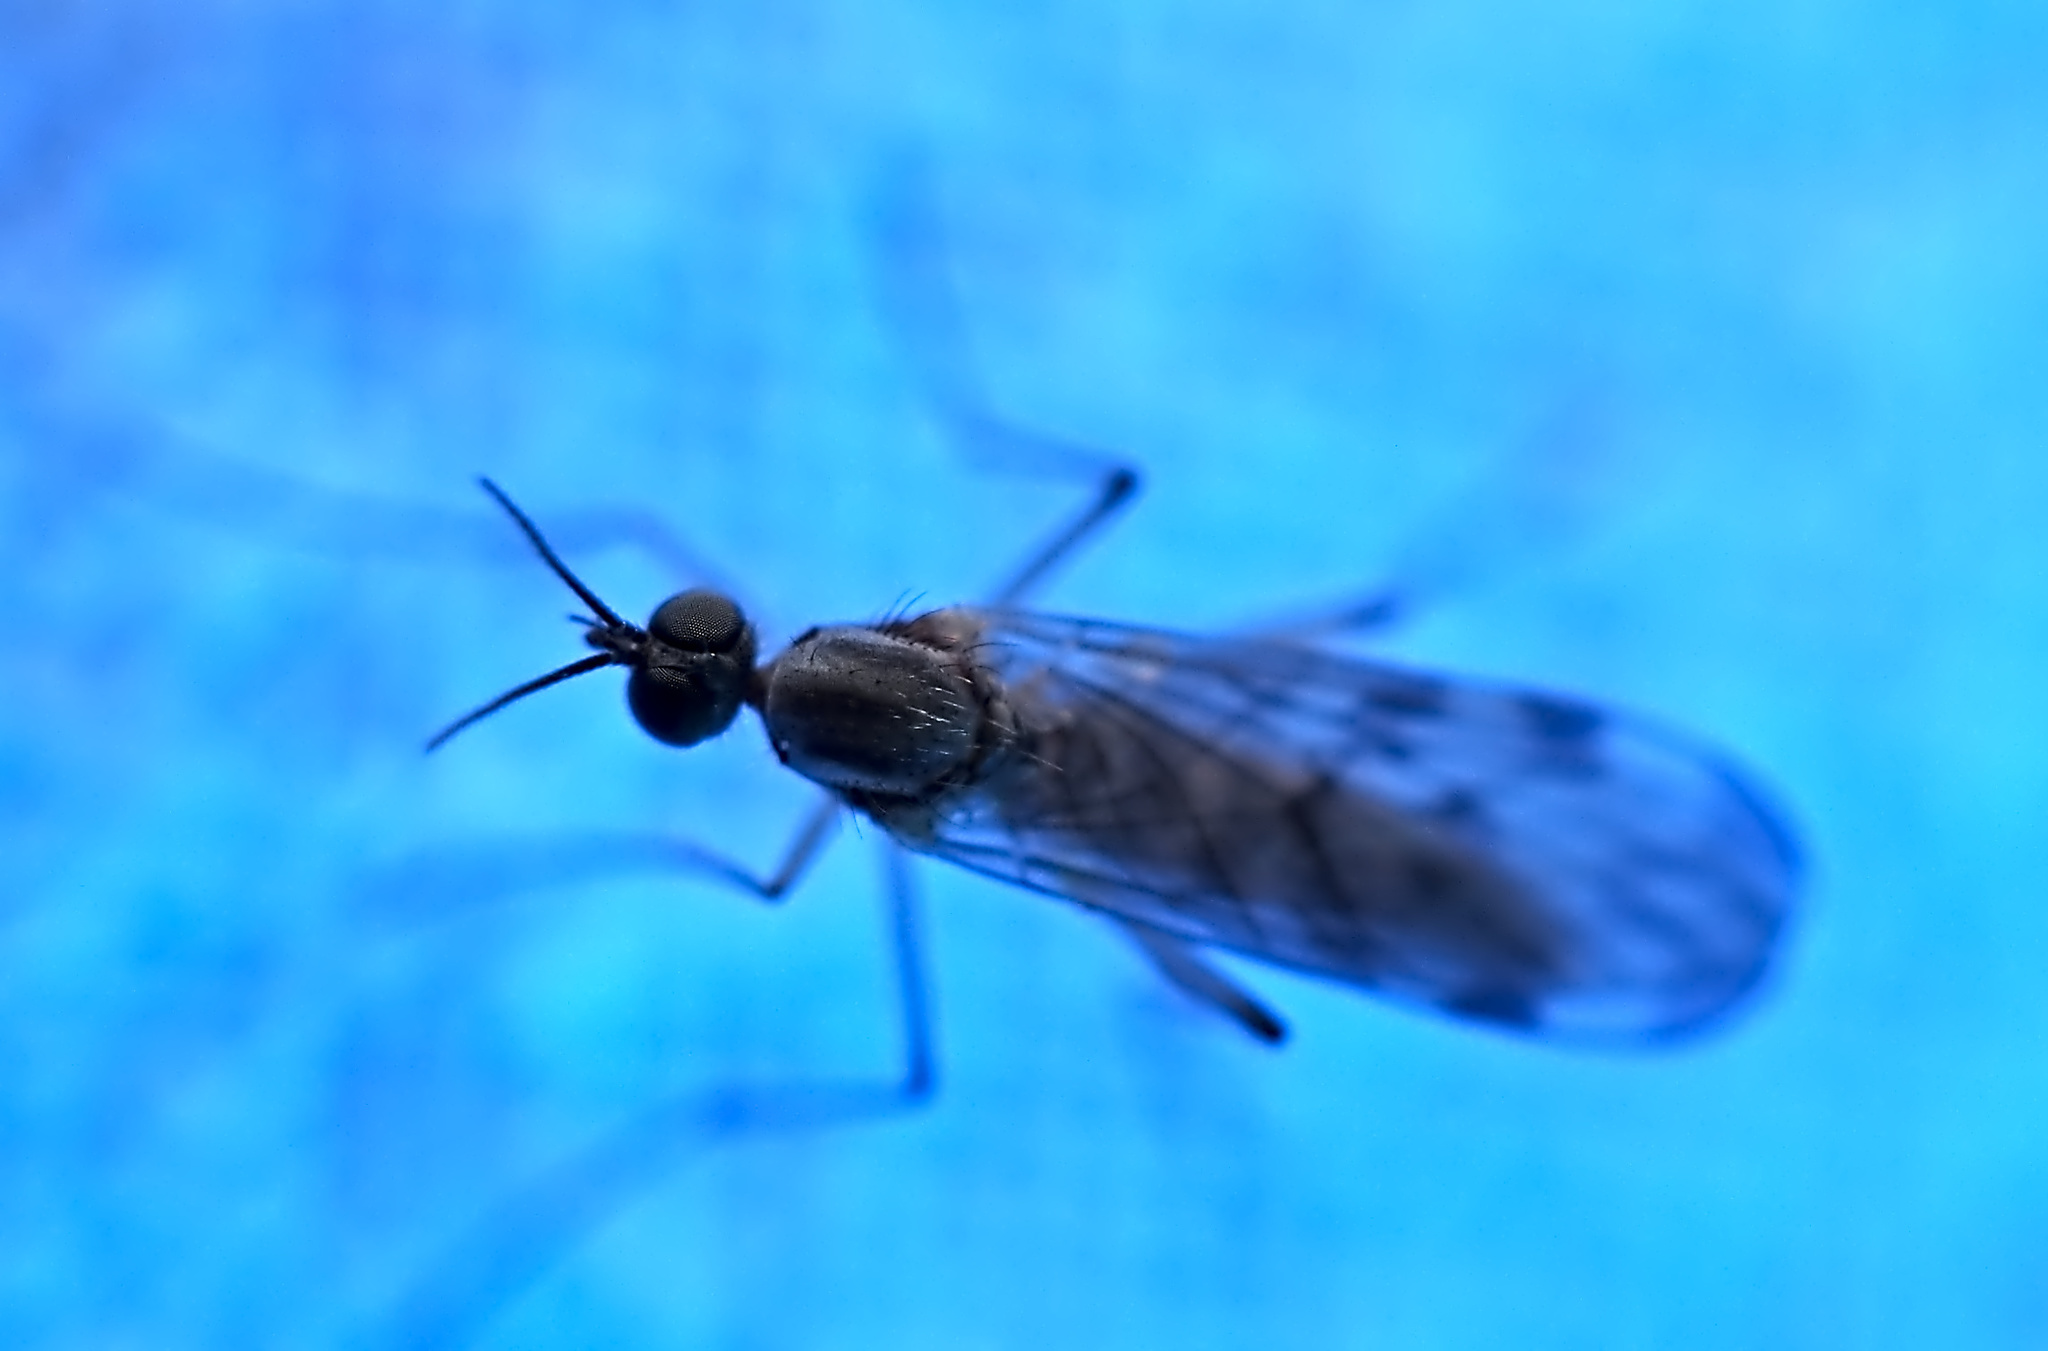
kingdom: Animalia
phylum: Arthropoda
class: Insecta
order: Diptera
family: Anisopodidae
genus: Sylvicola
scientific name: Sylvicola
